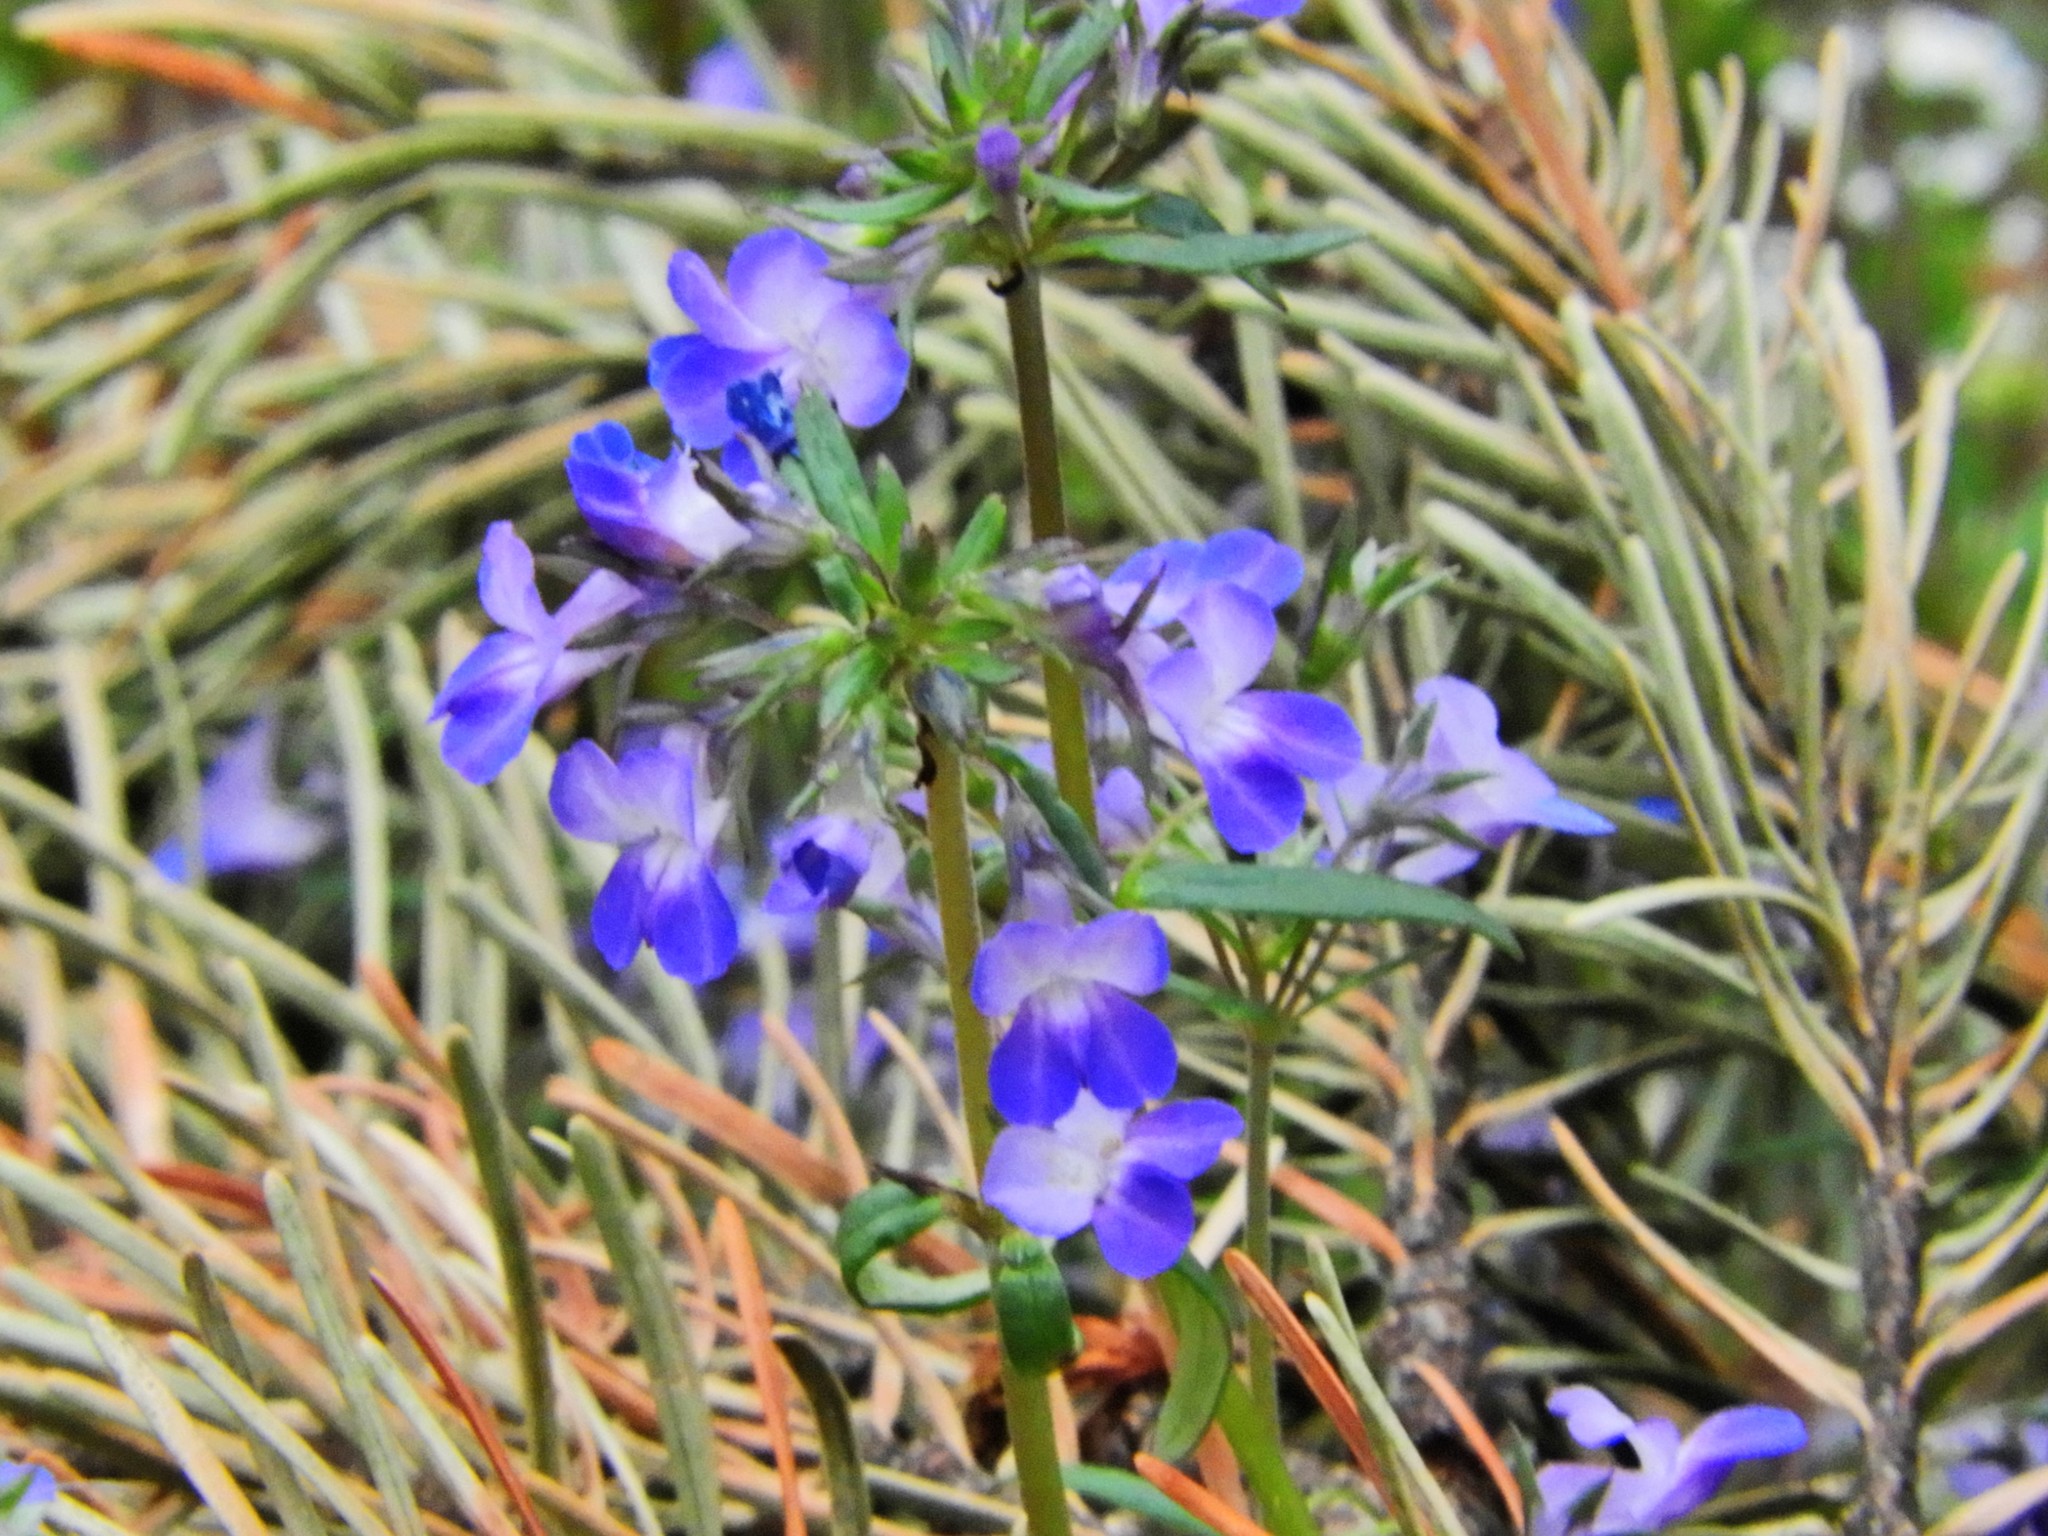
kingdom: Plantae
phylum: Tracheophyta
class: Magnoliopsida
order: Lamiales
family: Plantaginaceae
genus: Collinsia
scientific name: Collinsia grandiflora
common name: Large-flower blue-eyed-mary
